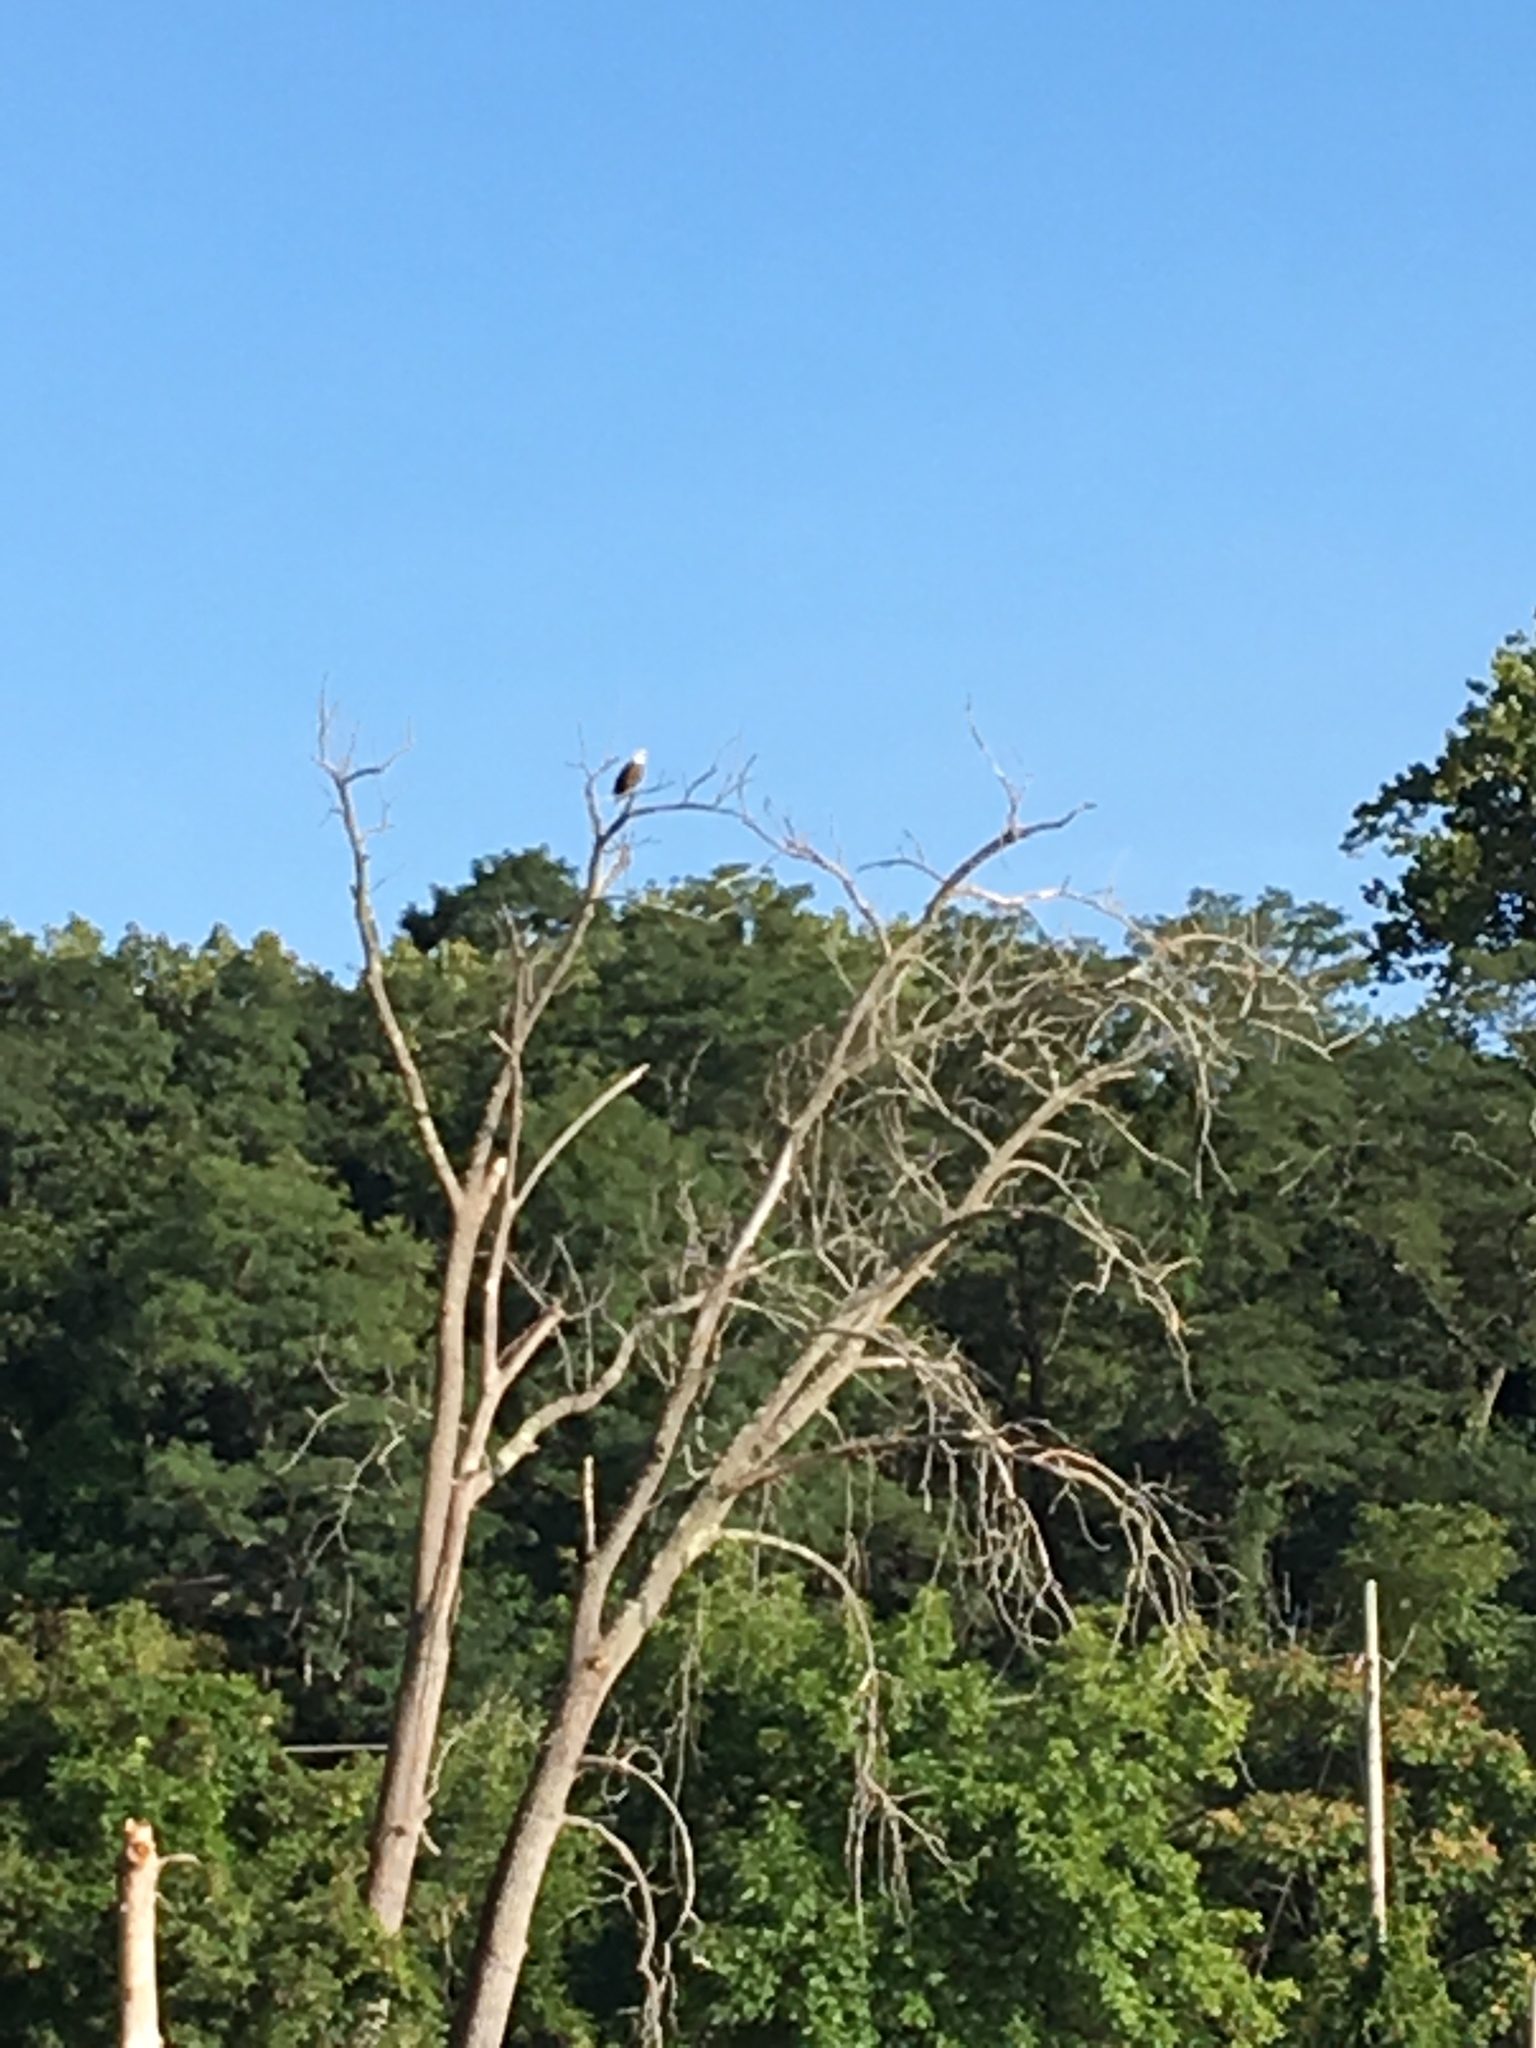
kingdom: Animalia
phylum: Chordata
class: Aves
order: Accipitriformes
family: Accipitridae
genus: Haliaeetus
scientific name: Haliaeetus leucocephalus
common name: Bald eagle
